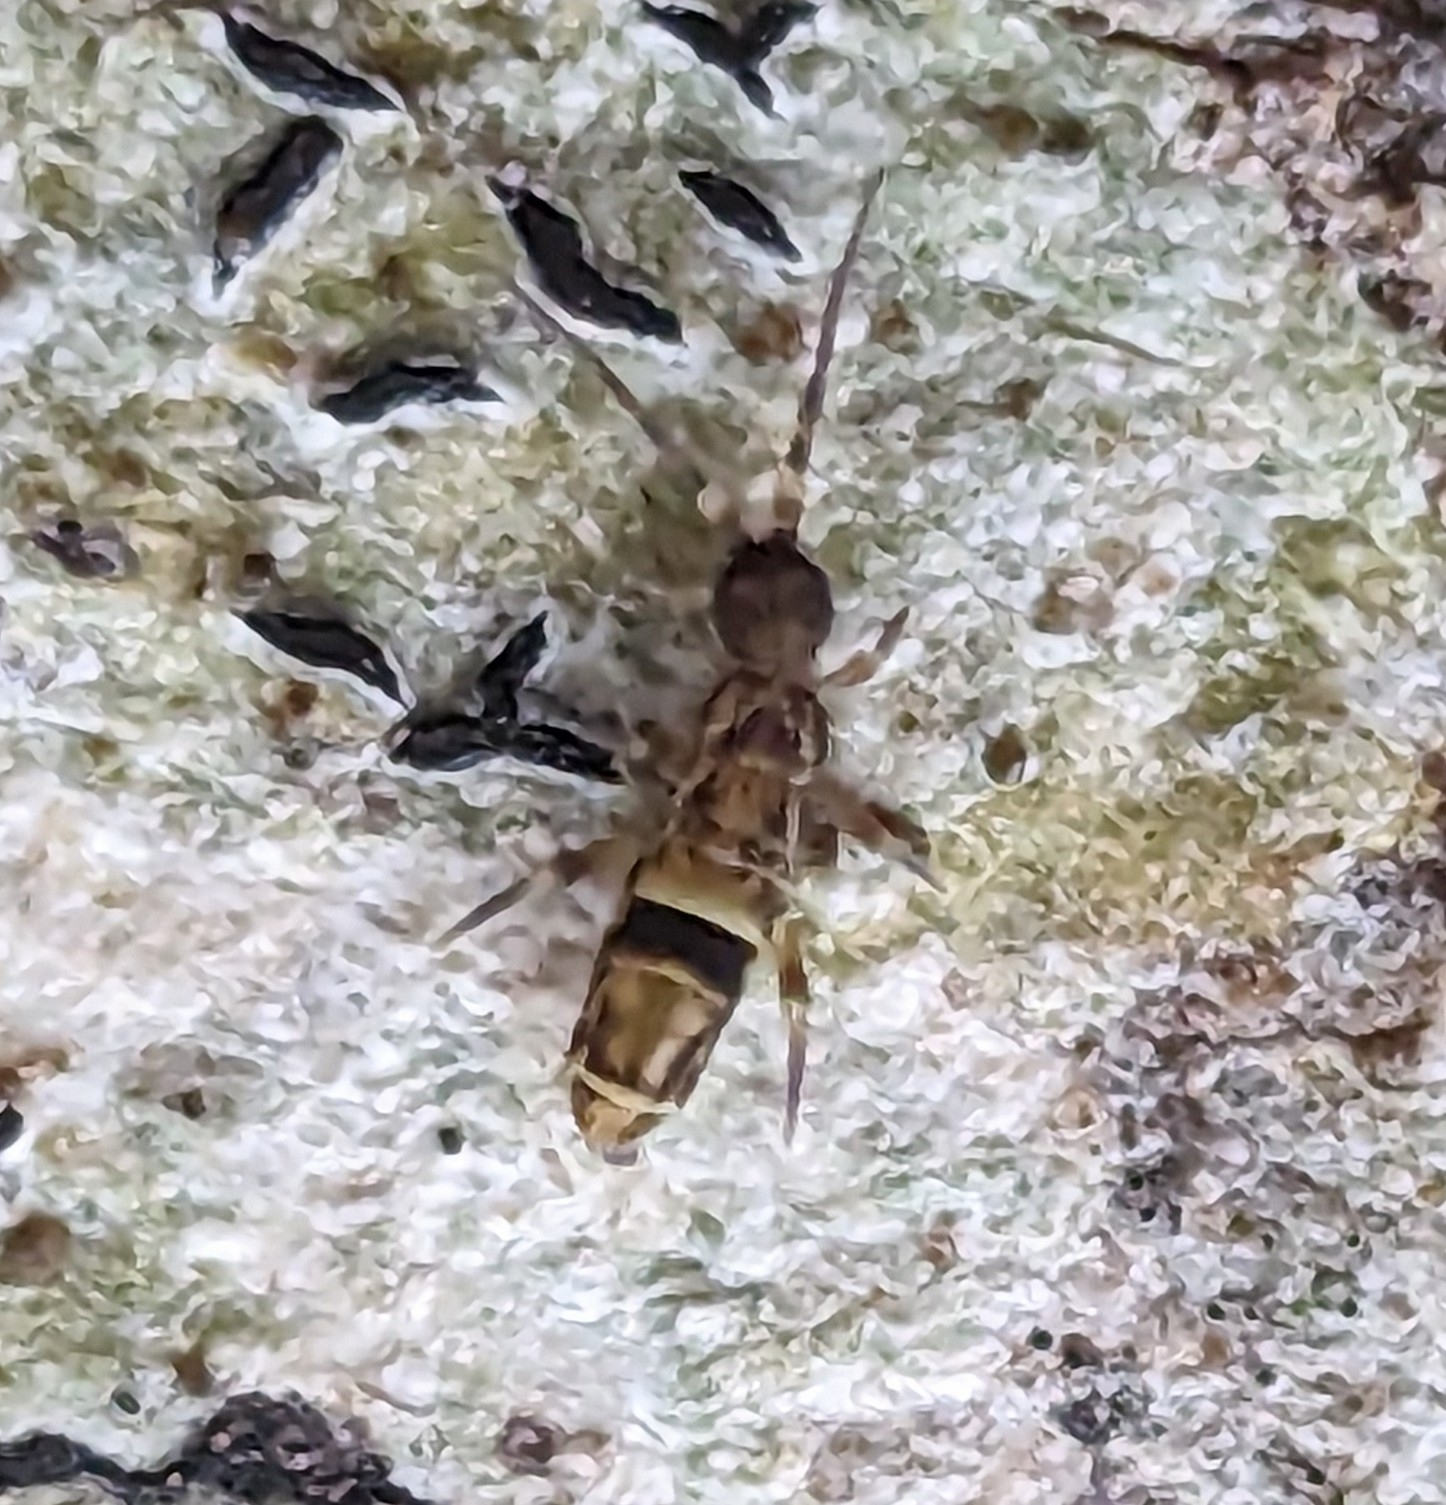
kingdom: Animalia
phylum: Arthropoda
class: Collembola
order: Entomobryomorpha
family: Orchesellidae
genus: Orchesella
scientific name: Orchesella cincta
